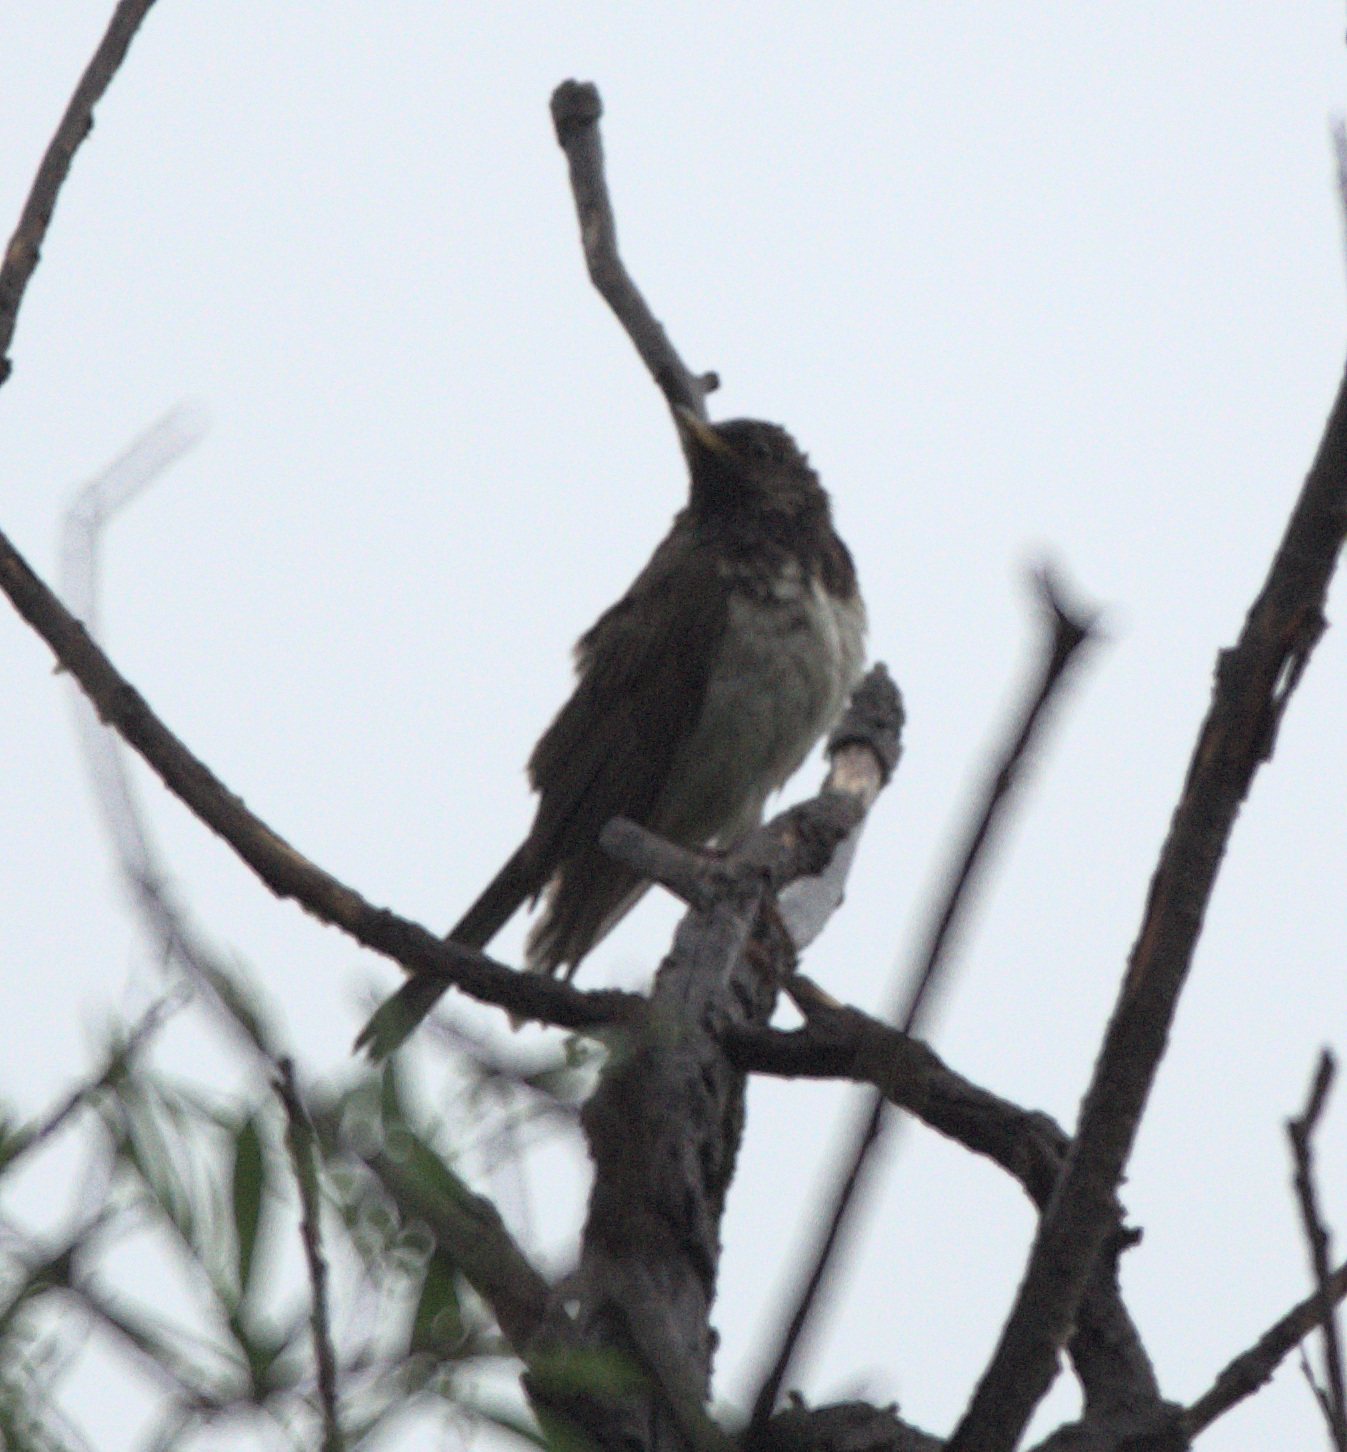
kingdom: Animalia
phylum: Chordata
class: Aves
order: Passeriformes
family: Turdidae
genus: Turdus
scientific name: Turdus atrogularis
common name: Black-throated thrush
